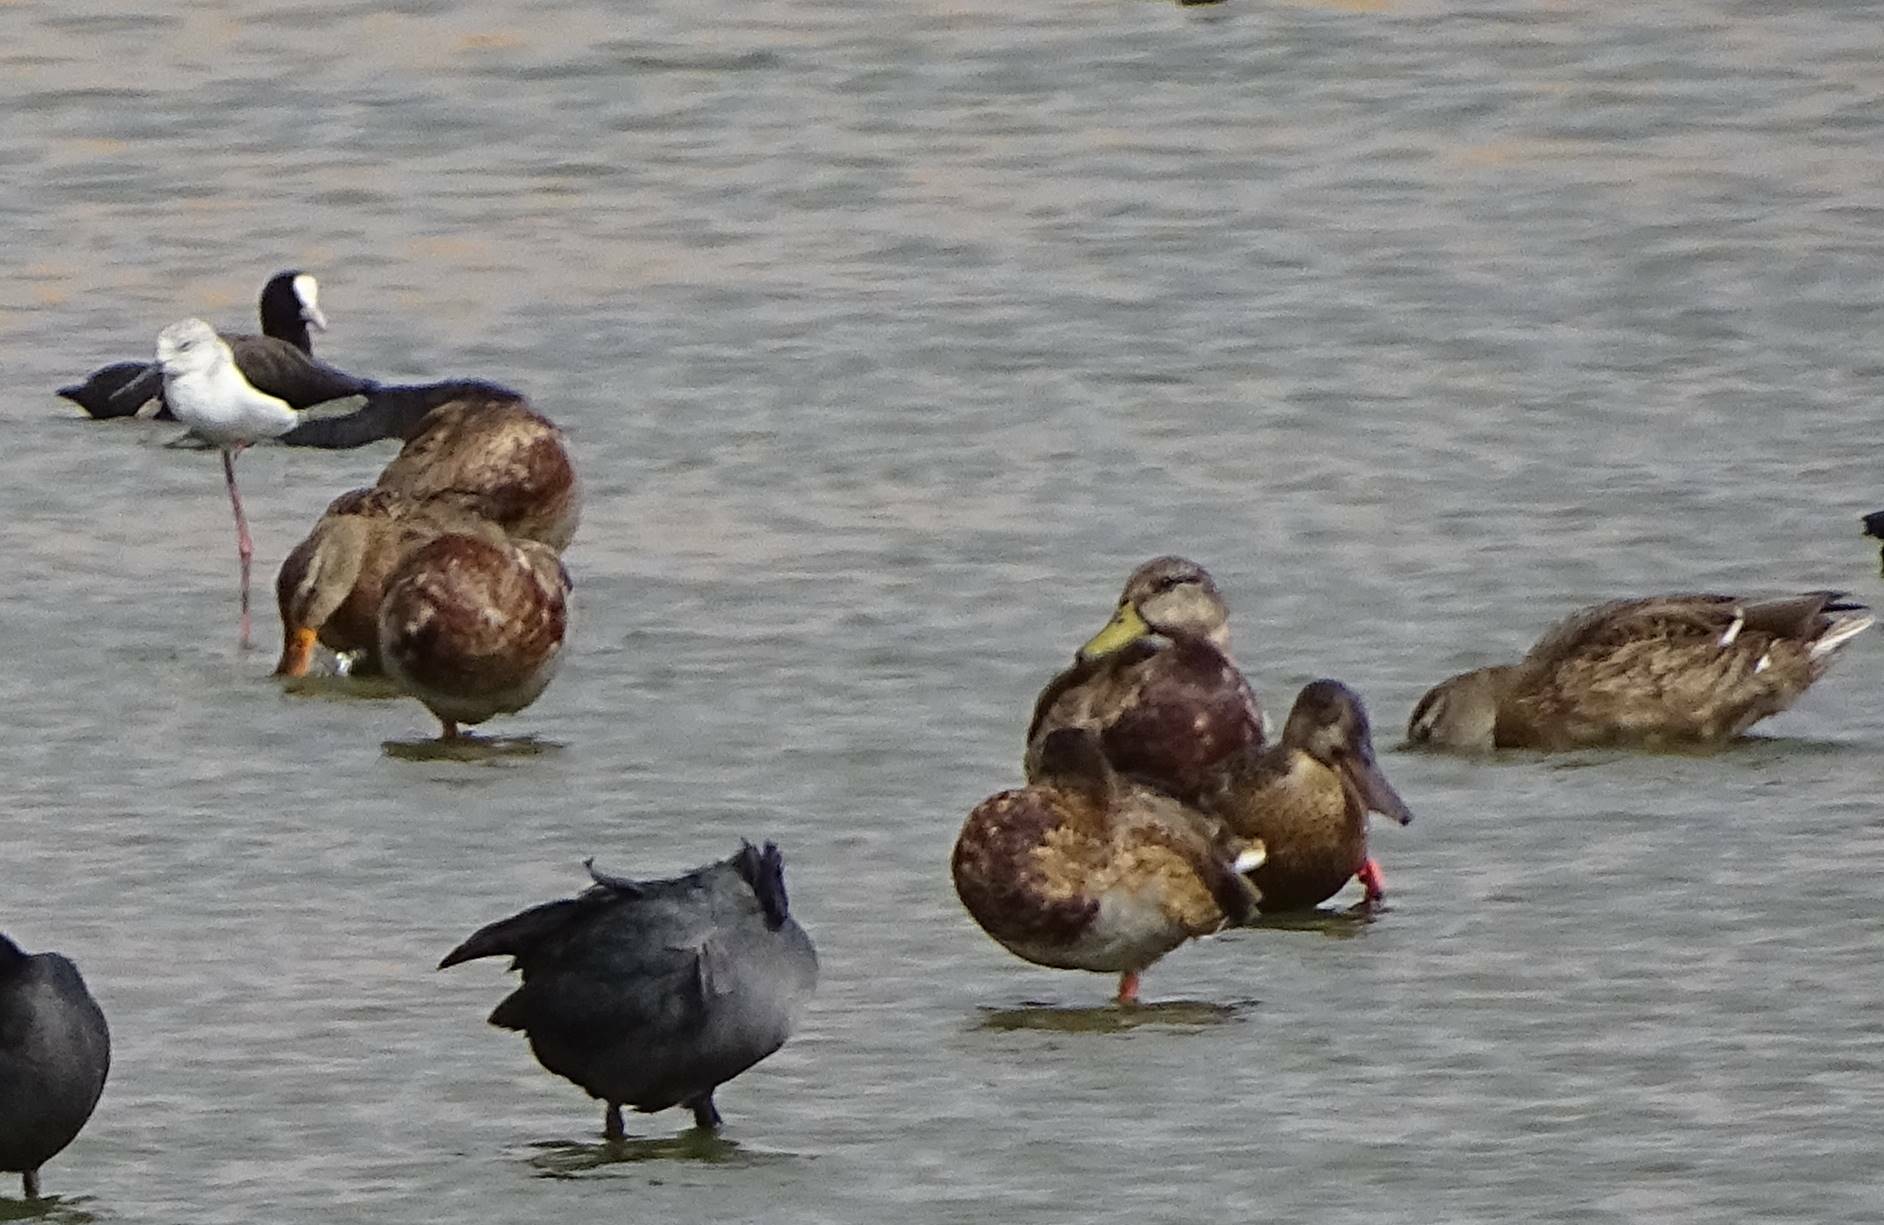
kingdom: Animalia
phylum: Chordata
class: Aves
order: Anseriformes
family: Anatidae
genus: Anas
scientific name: Anas platyrhynchos
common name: Mallard
